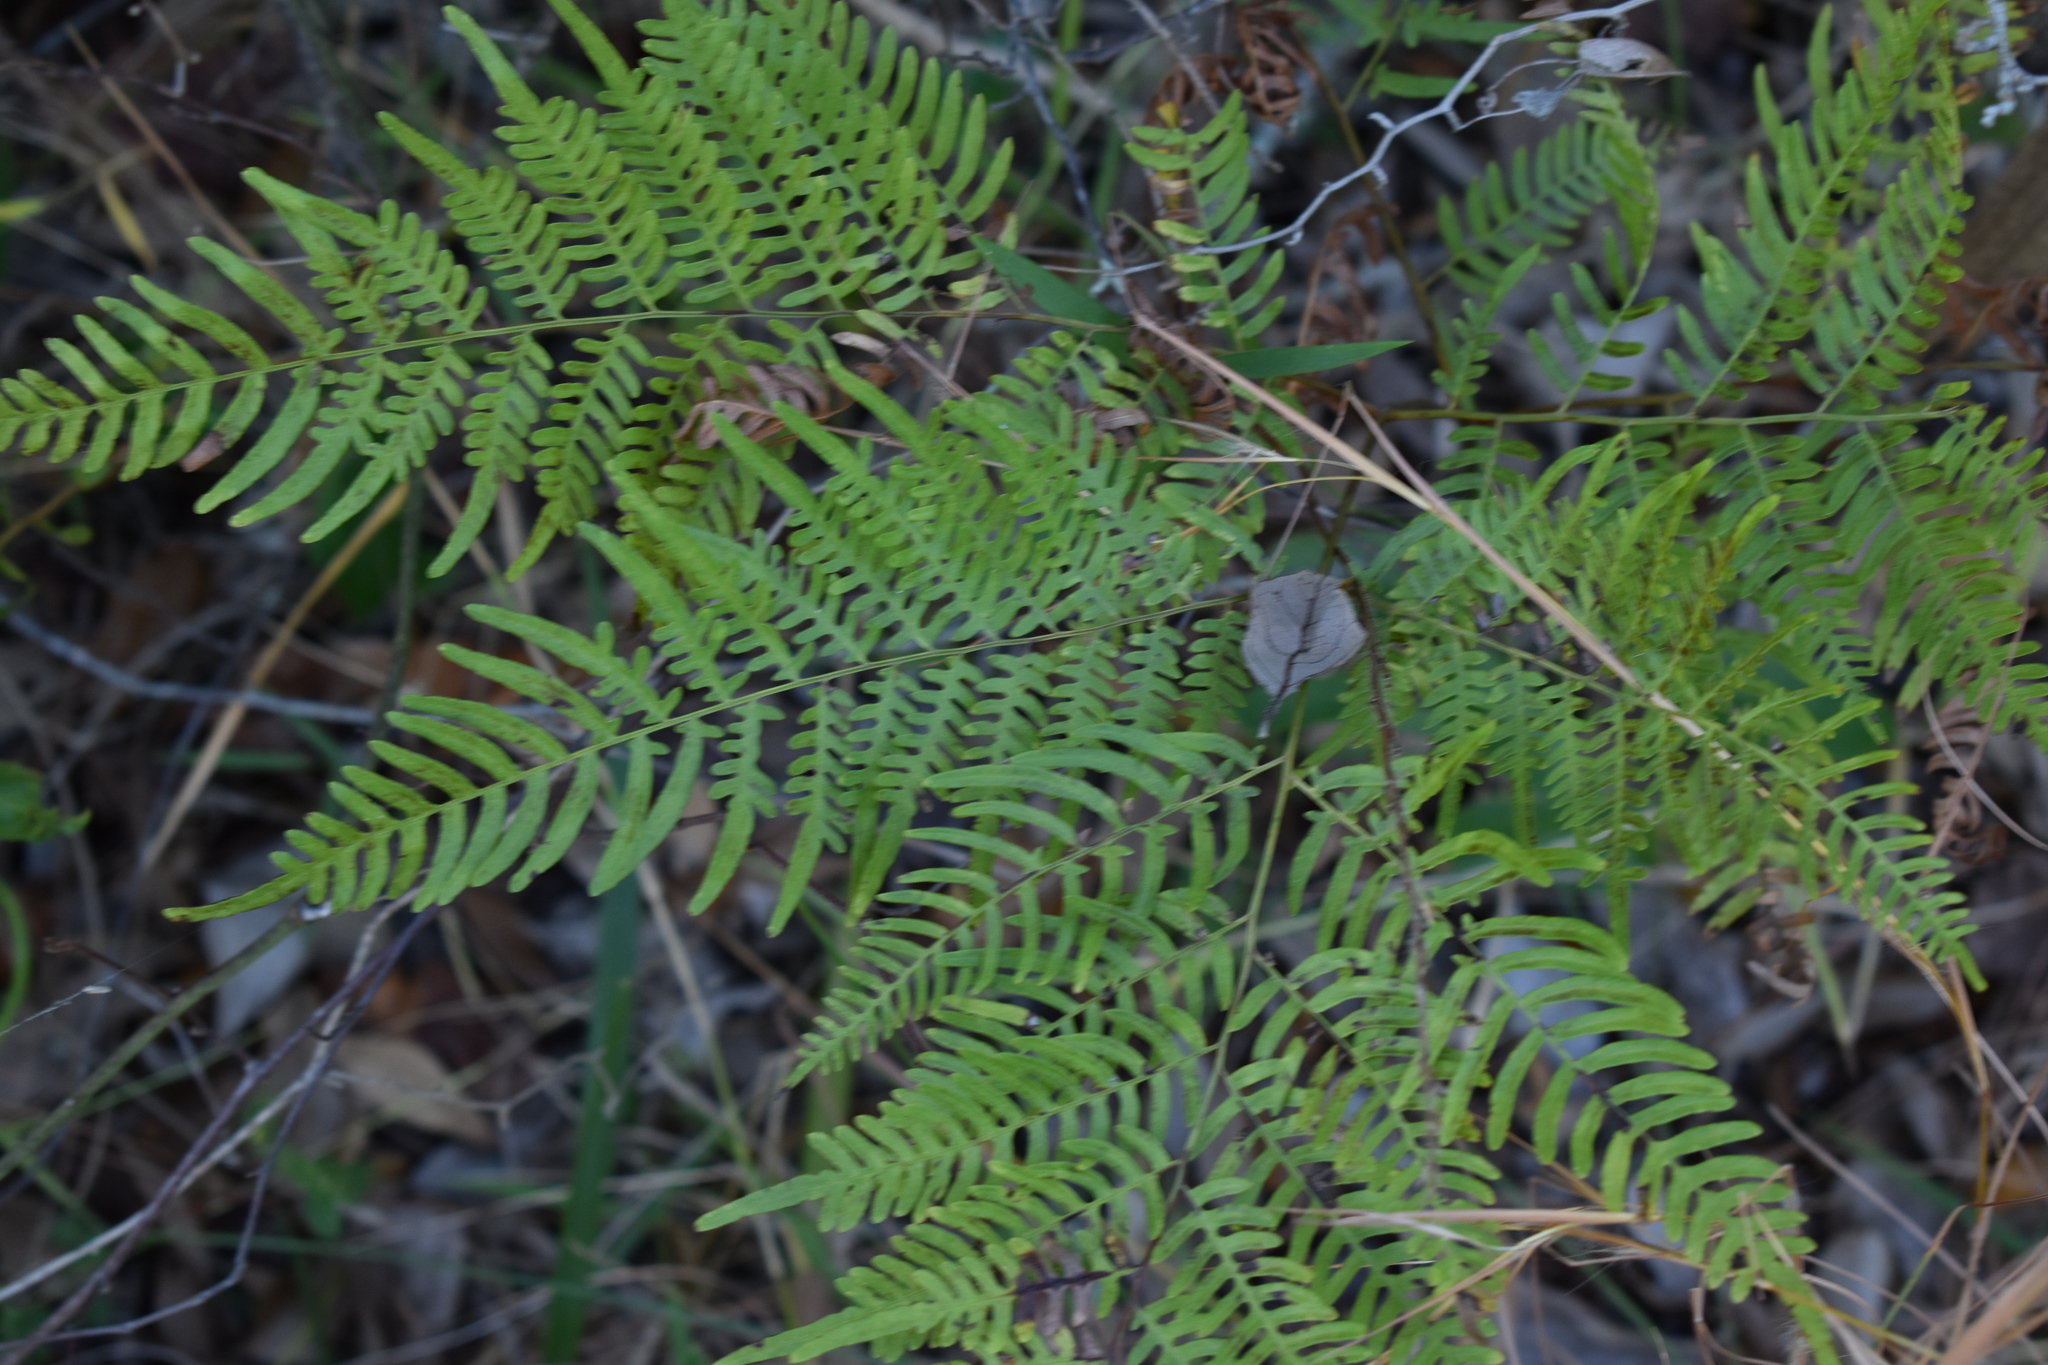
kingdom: Plantae
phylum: Tracheophyta
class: Polypodiopsida
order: Polypodiales
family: Dennstaedtiaceae
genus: Pteridium
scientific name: Pteridium
